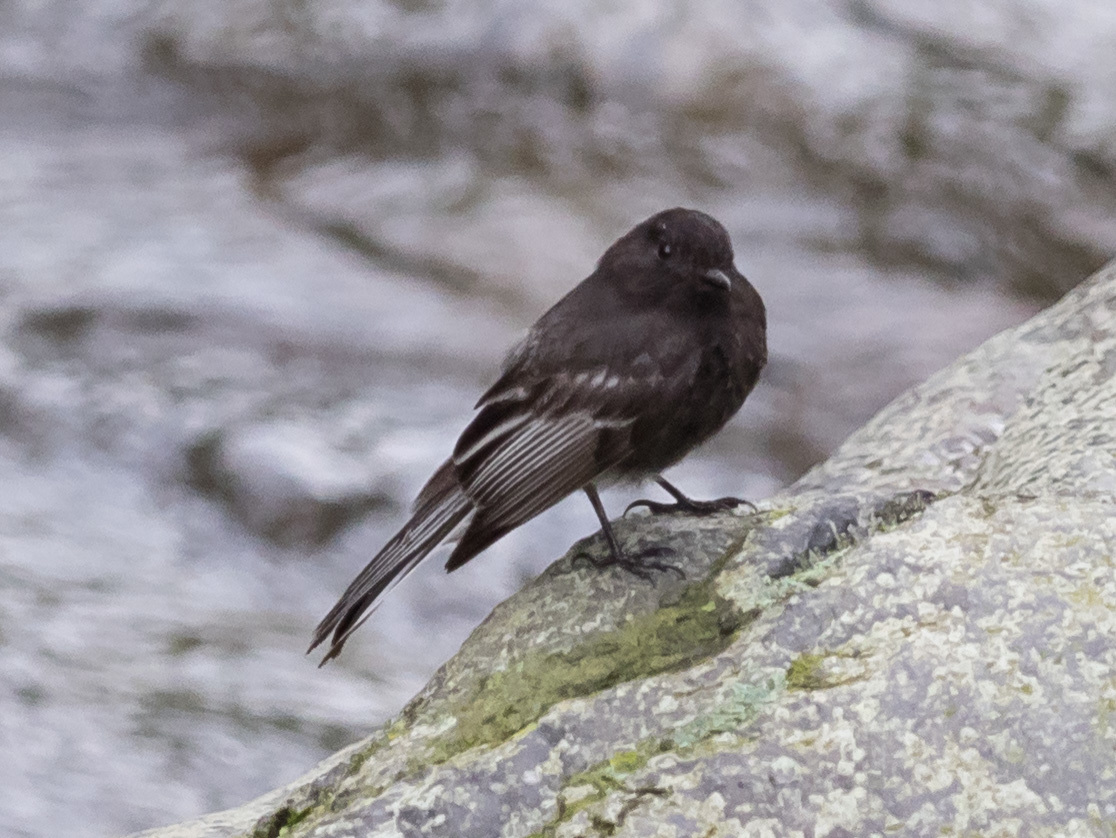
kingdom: Animalia
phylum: Chordata
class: Aves
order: Passeriformes
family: Tyrannidae
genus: Sayornis
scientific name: Sayornis nigricans
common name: Black phoebe
